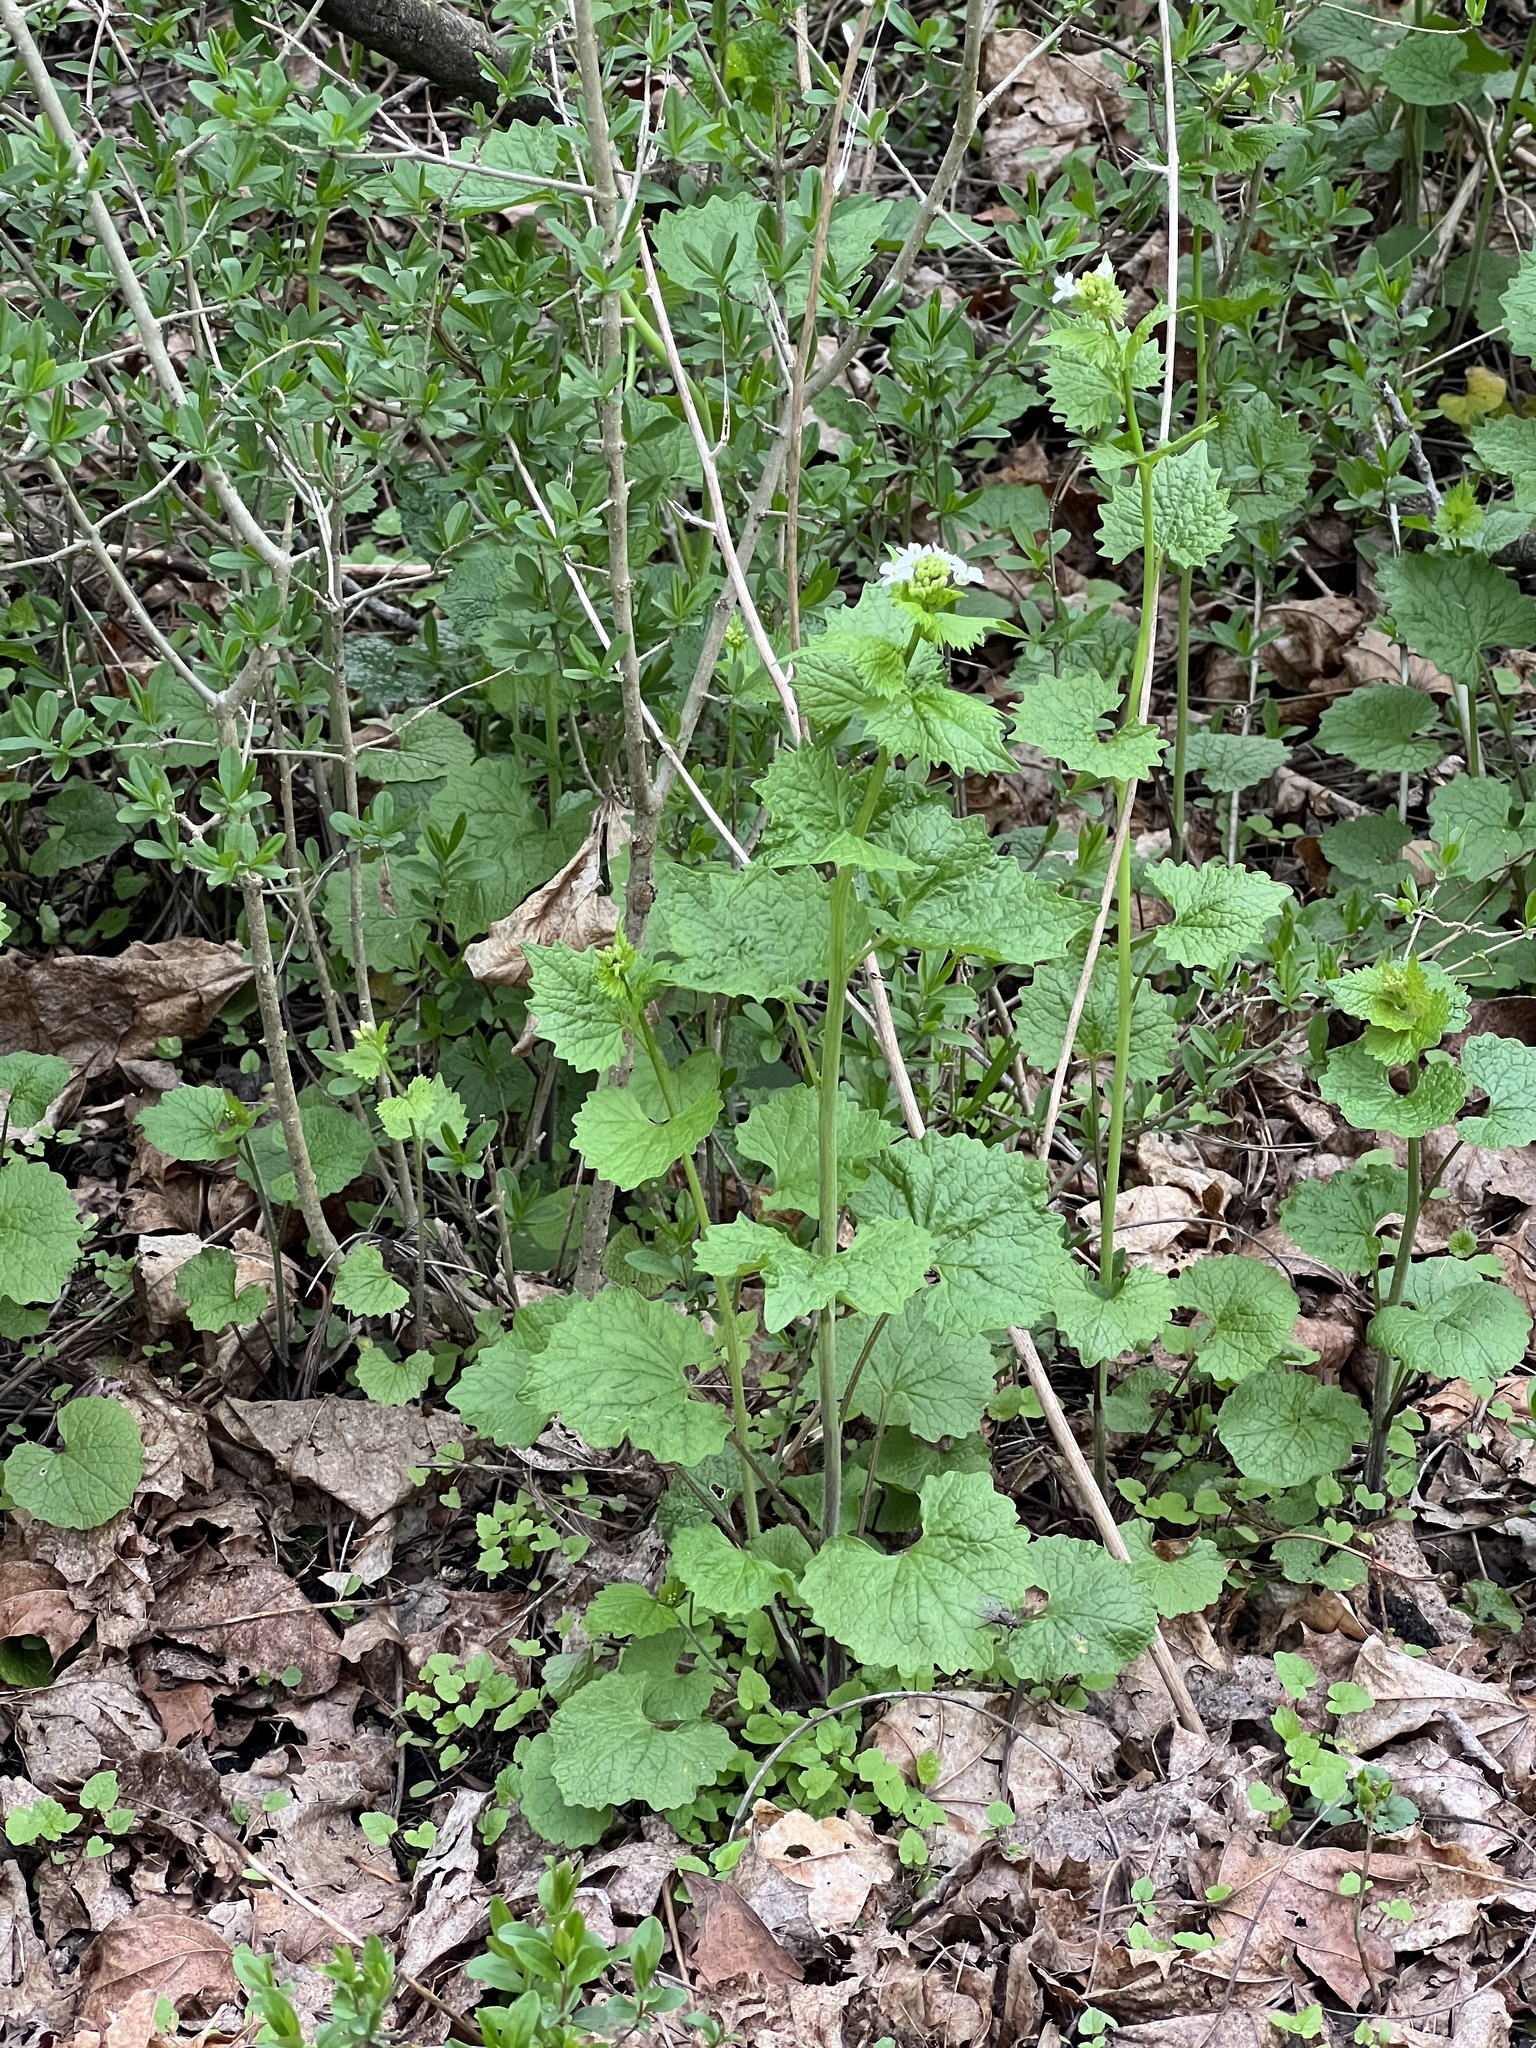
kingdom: Plantae
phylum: Tracheophyta
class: Magnoliopsida
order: Brassicales
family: Brassicaceae
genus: Alliaria
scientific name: Alliaria petiolata
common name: Garlic mustard
